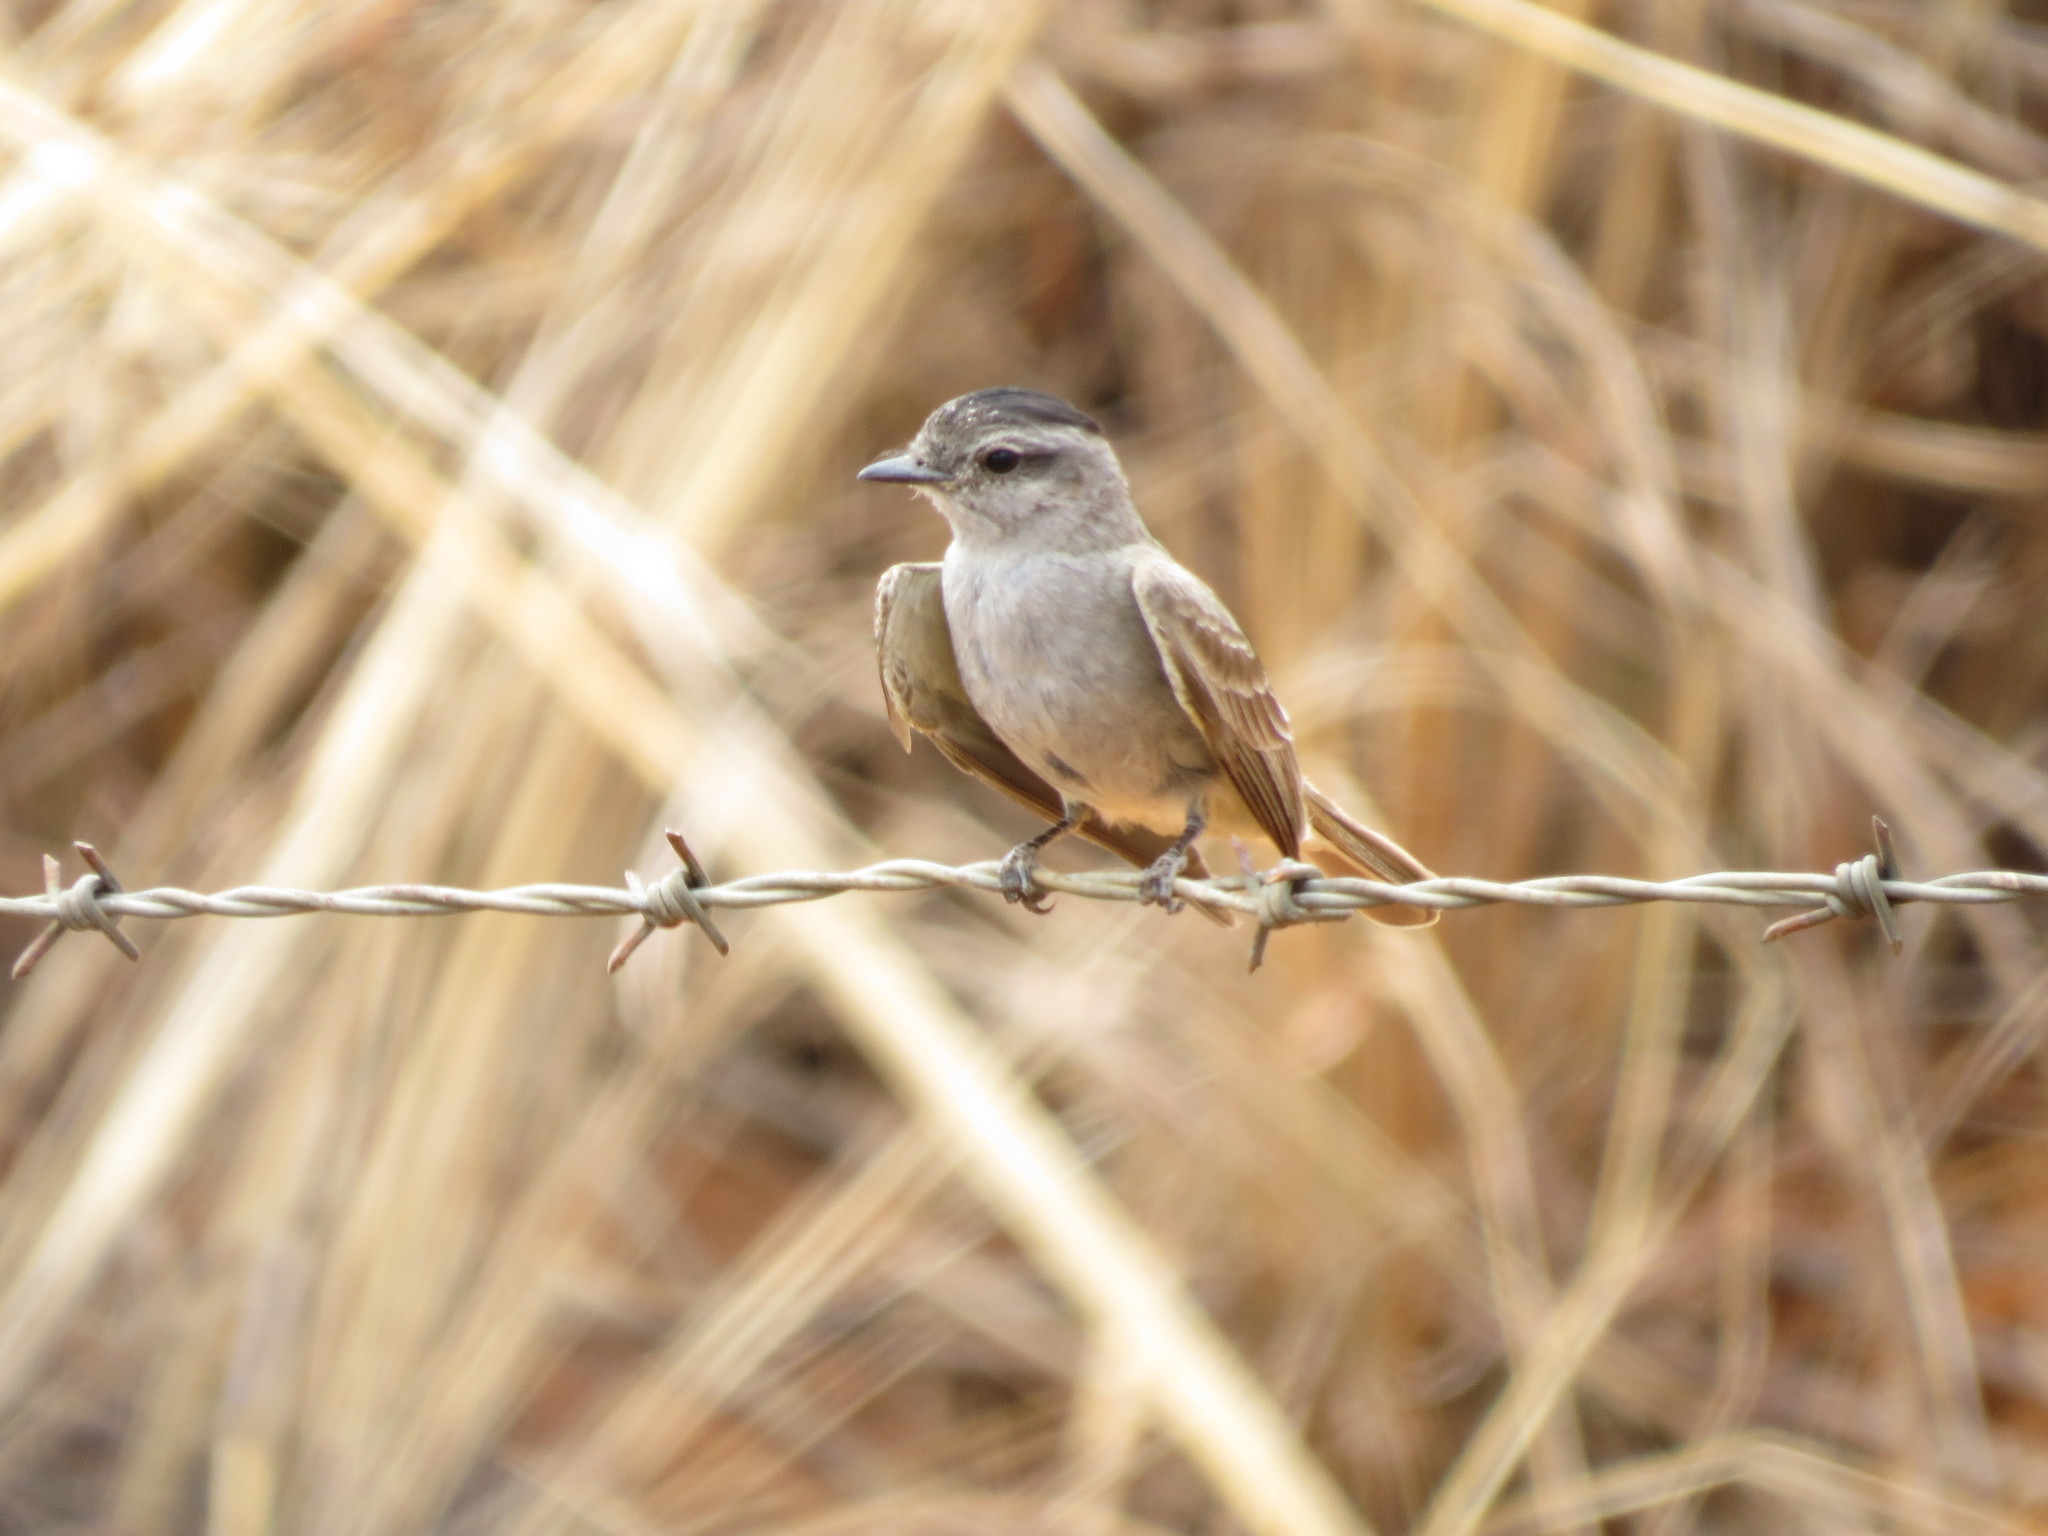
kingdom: Animalia
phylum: Chordata
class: Aves
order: Passeriformes
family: Tyrannidae
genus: Empidonomus
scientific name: Empidonomus aurantioatrocristatus
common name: Crowned slaty flycatcher
